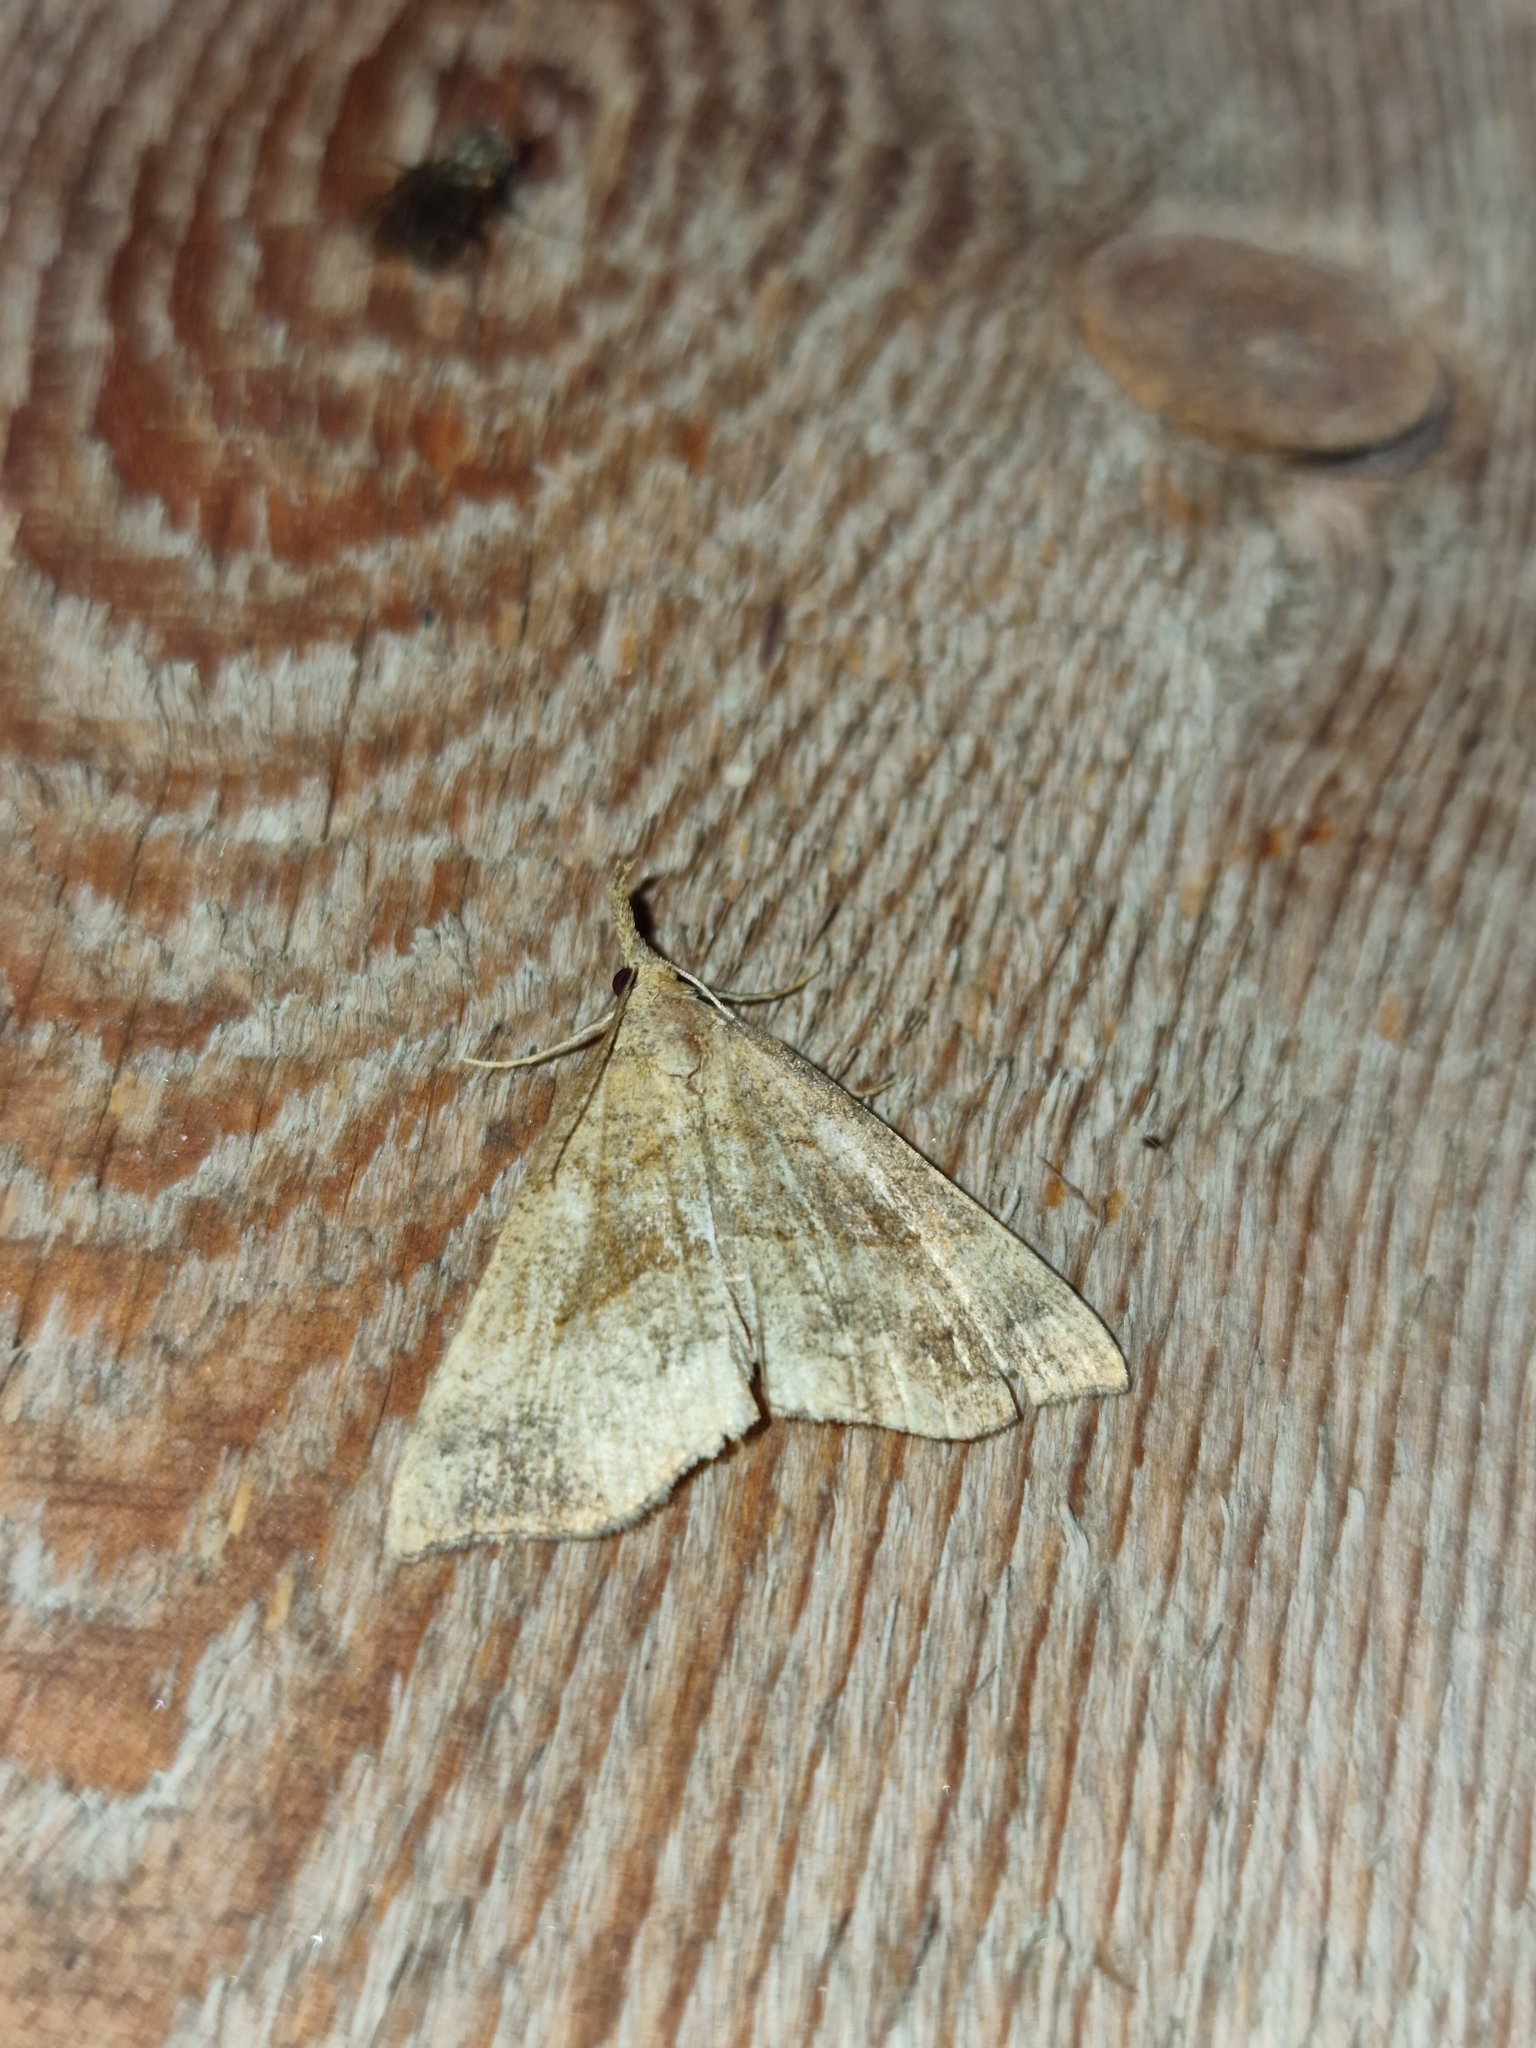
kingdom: Animalia
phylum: Arthropoda
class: Insecta
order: Lepidoptera
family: Erebidae
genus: Hypena
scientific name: Hypena proboscidalis
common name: Snout
